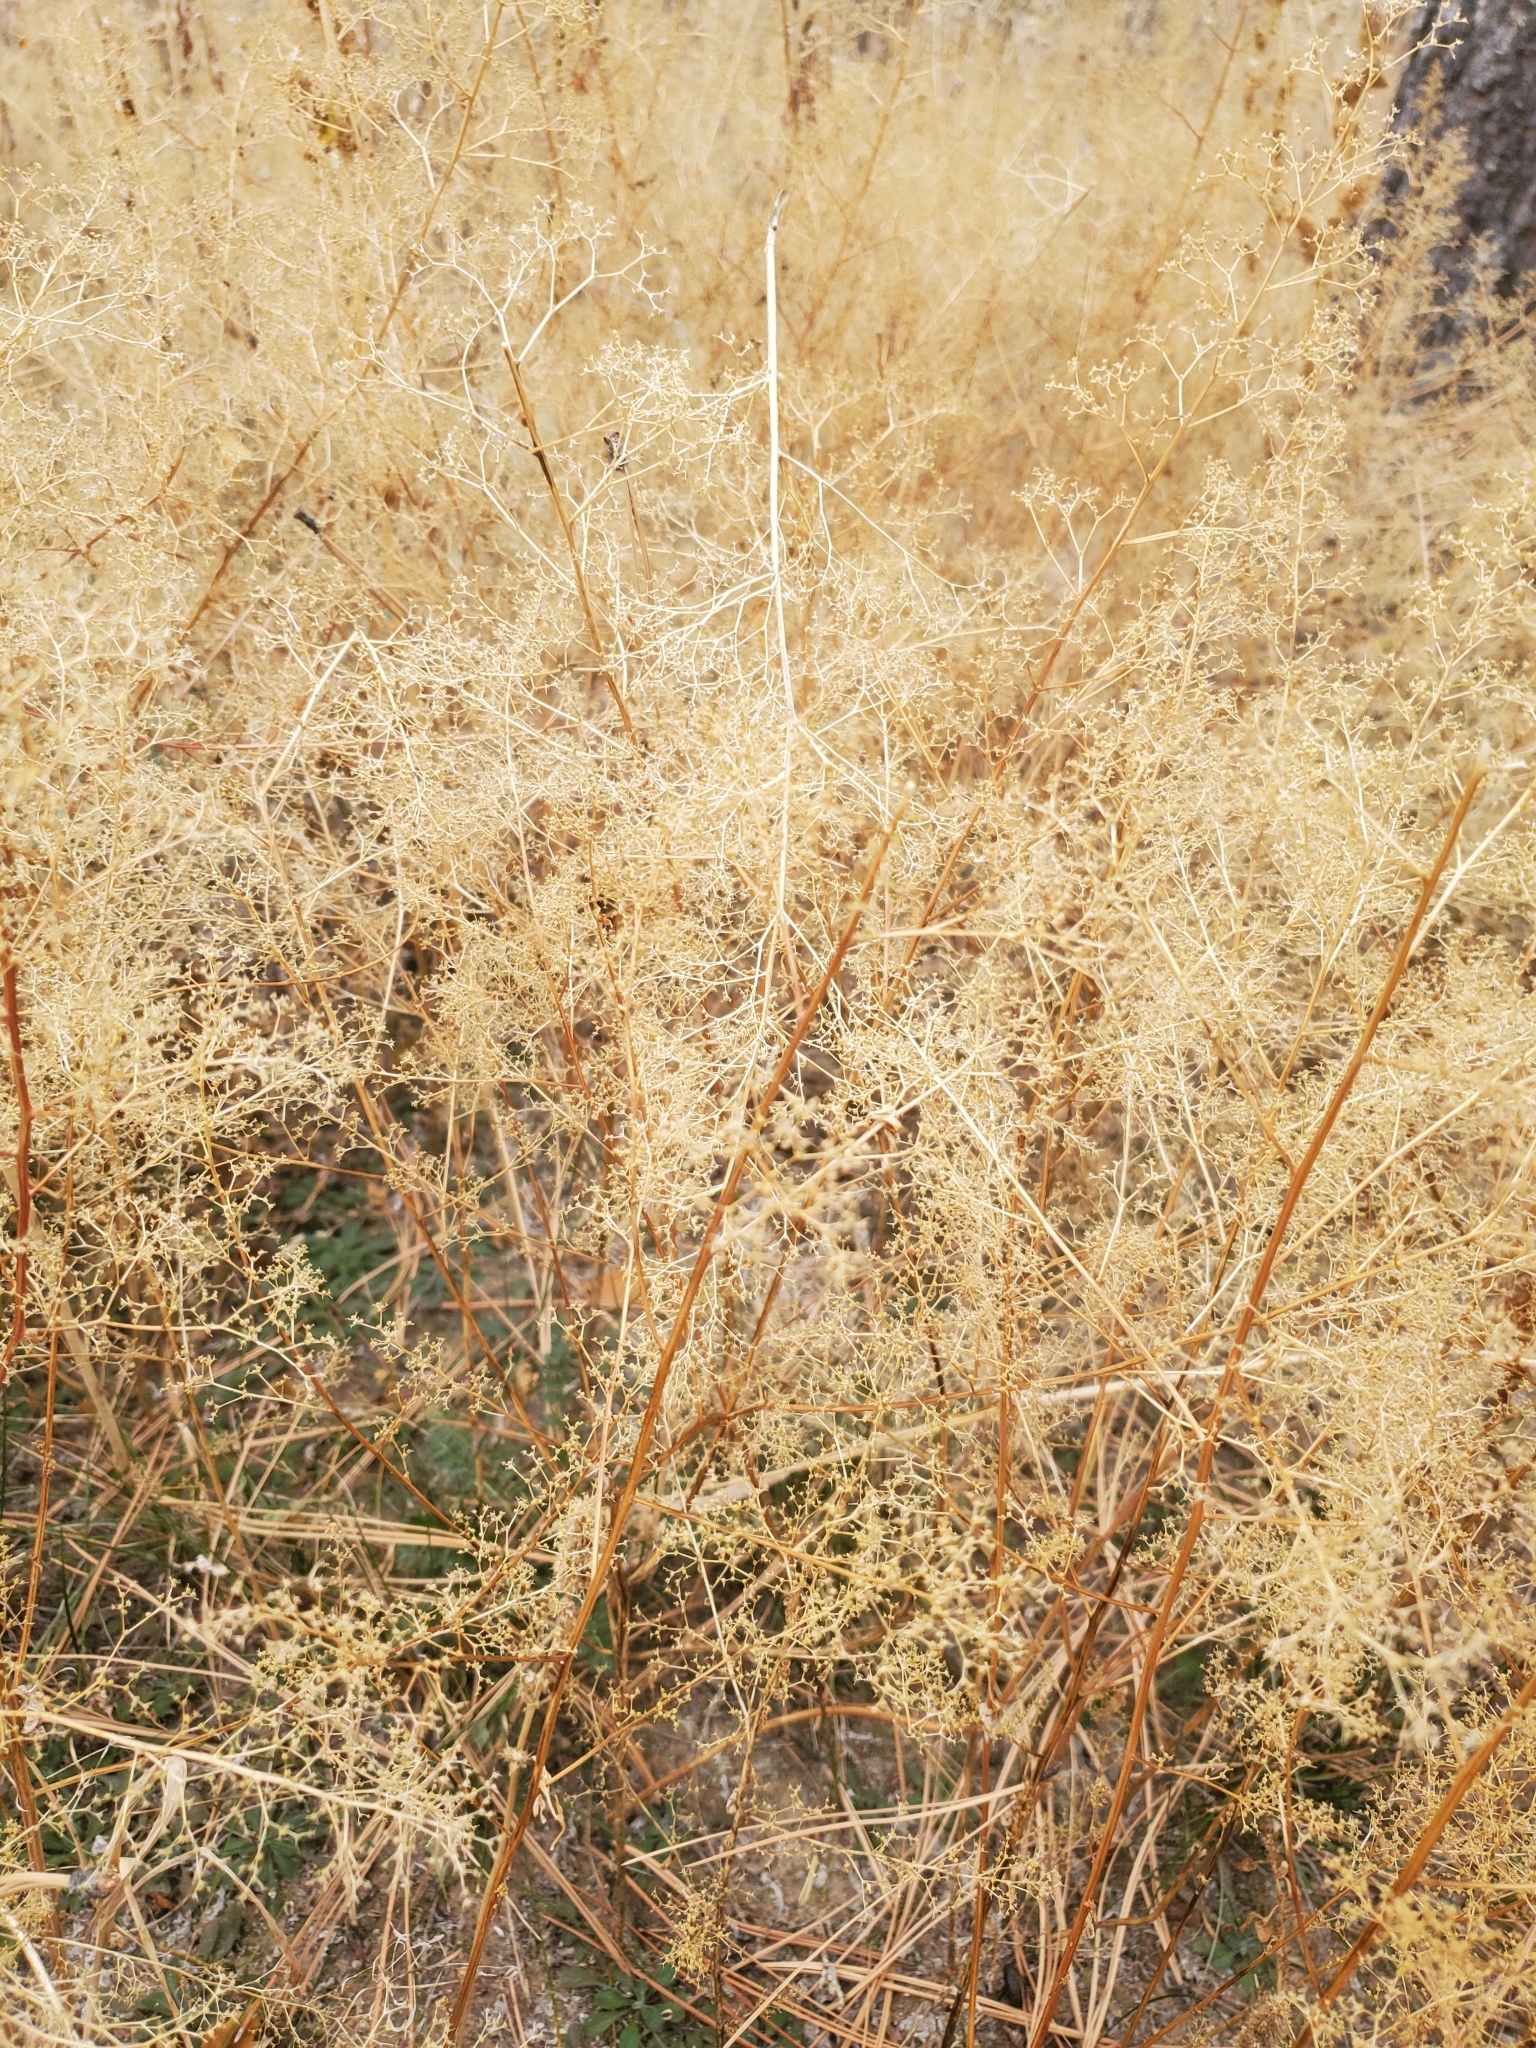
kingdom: Plantae
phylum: Tracheophyta
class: Magnoliopsida
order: Caryophyllales
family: Amaranthaceae
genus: Dysphania
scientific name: Dysphania incisa
